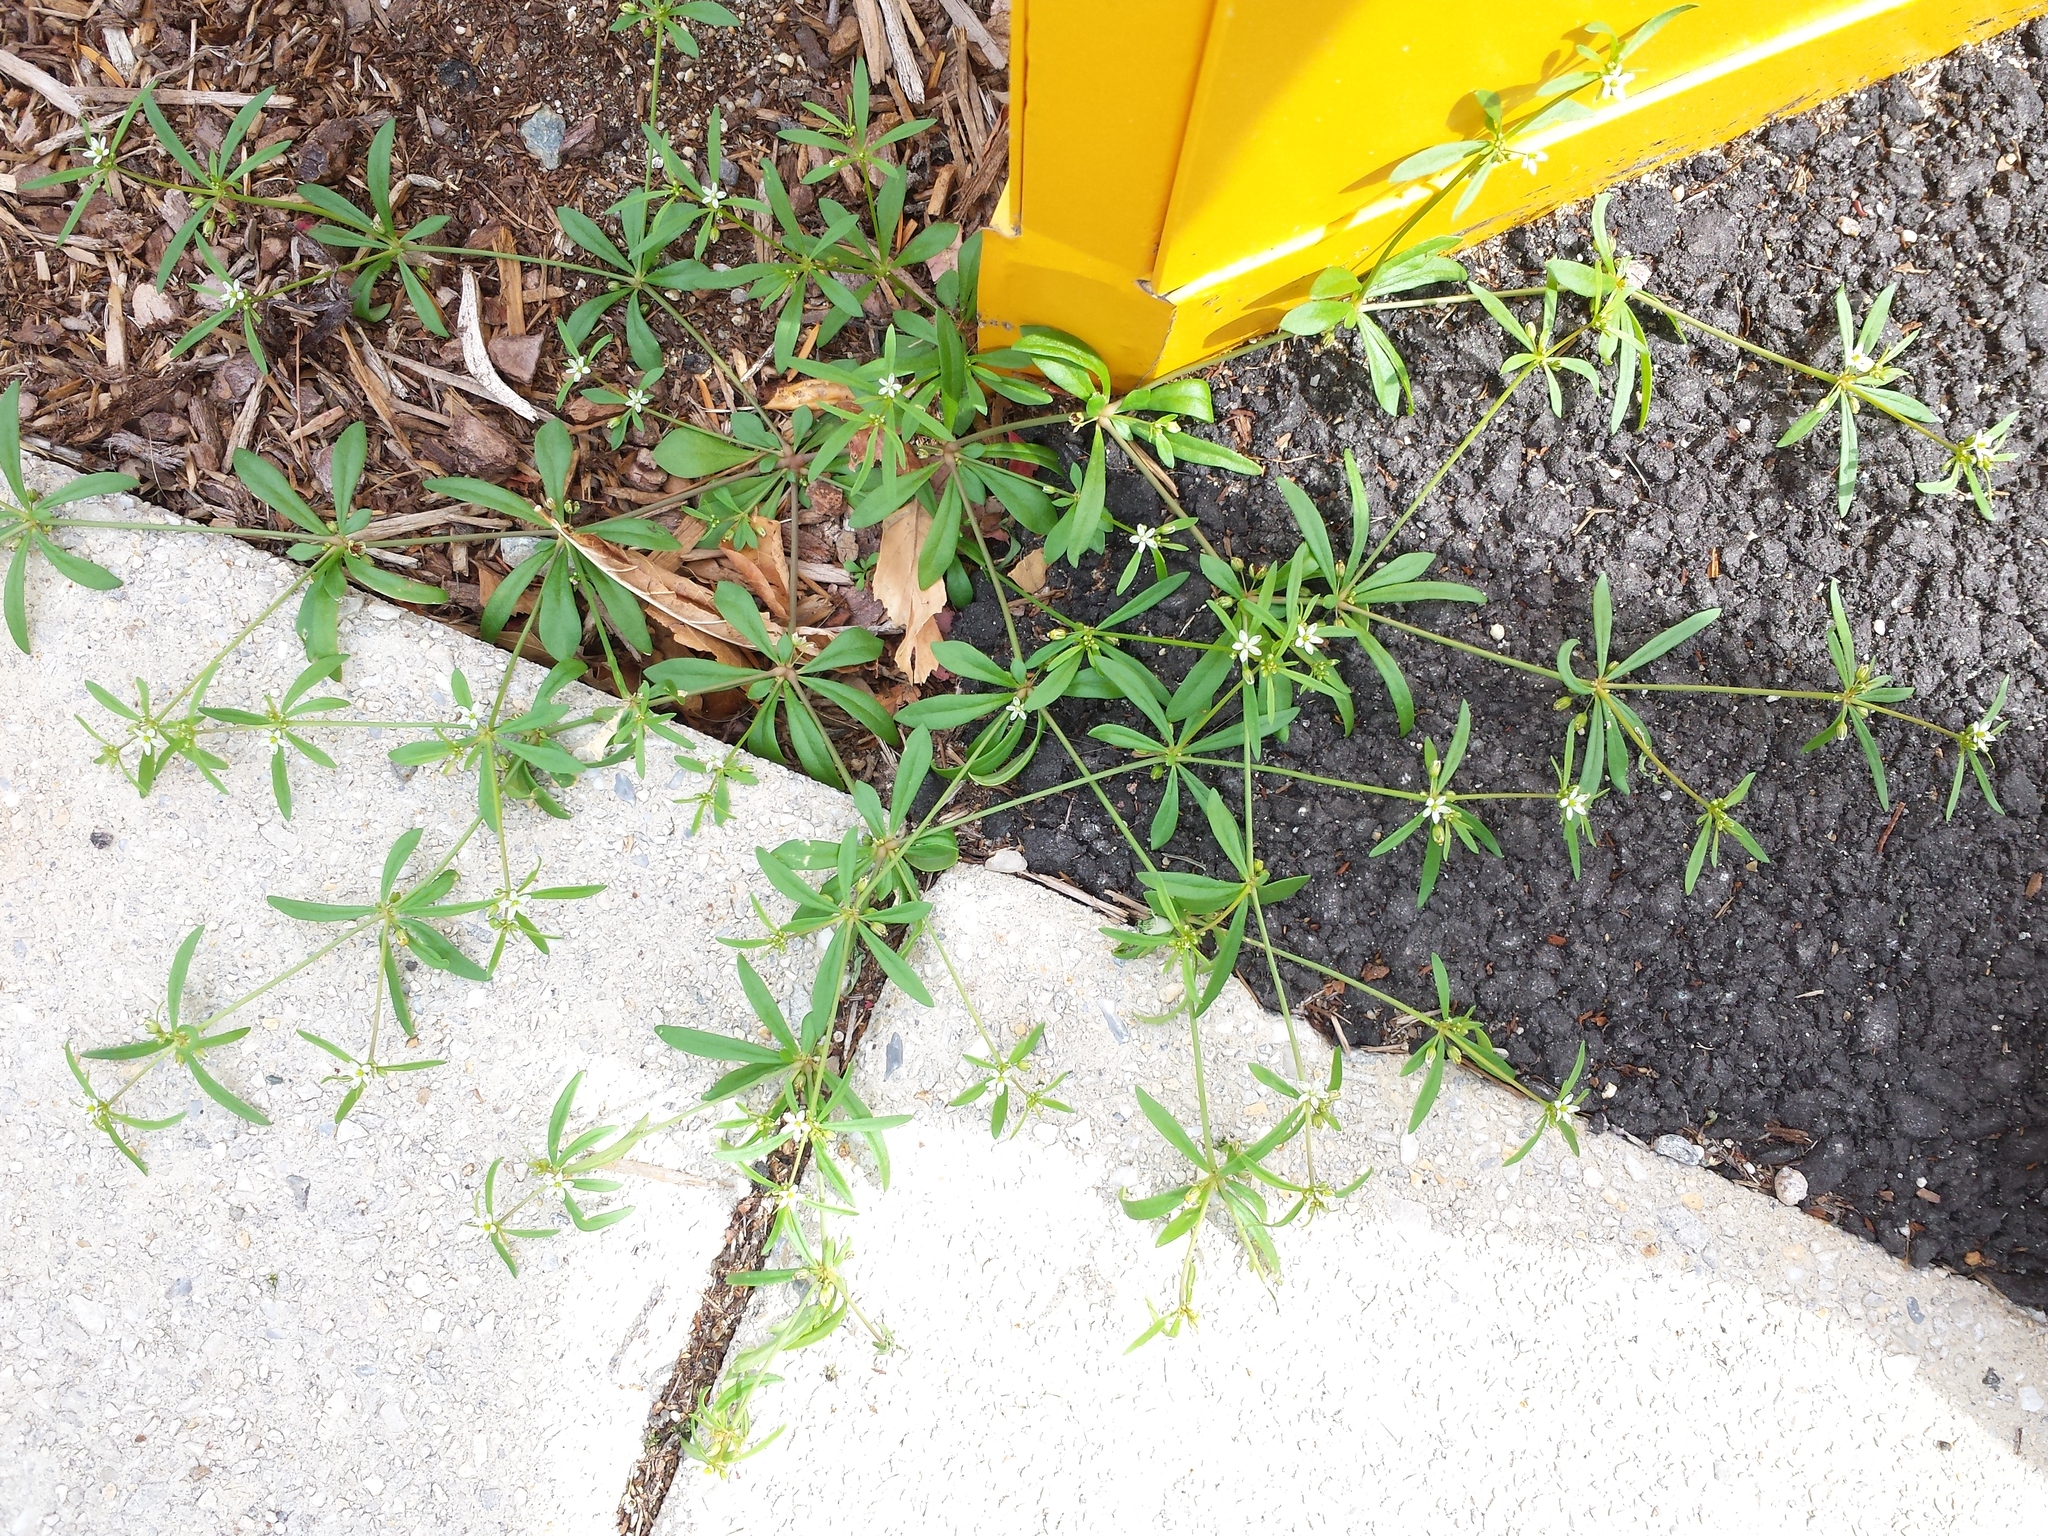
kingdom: Plantae
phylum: Tracheophyta
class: Magnoliopsida
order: Caryophyllales
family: Molluginaceae
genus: Mollugo
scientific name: Mollugo verticillata
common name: Green carpetweed
